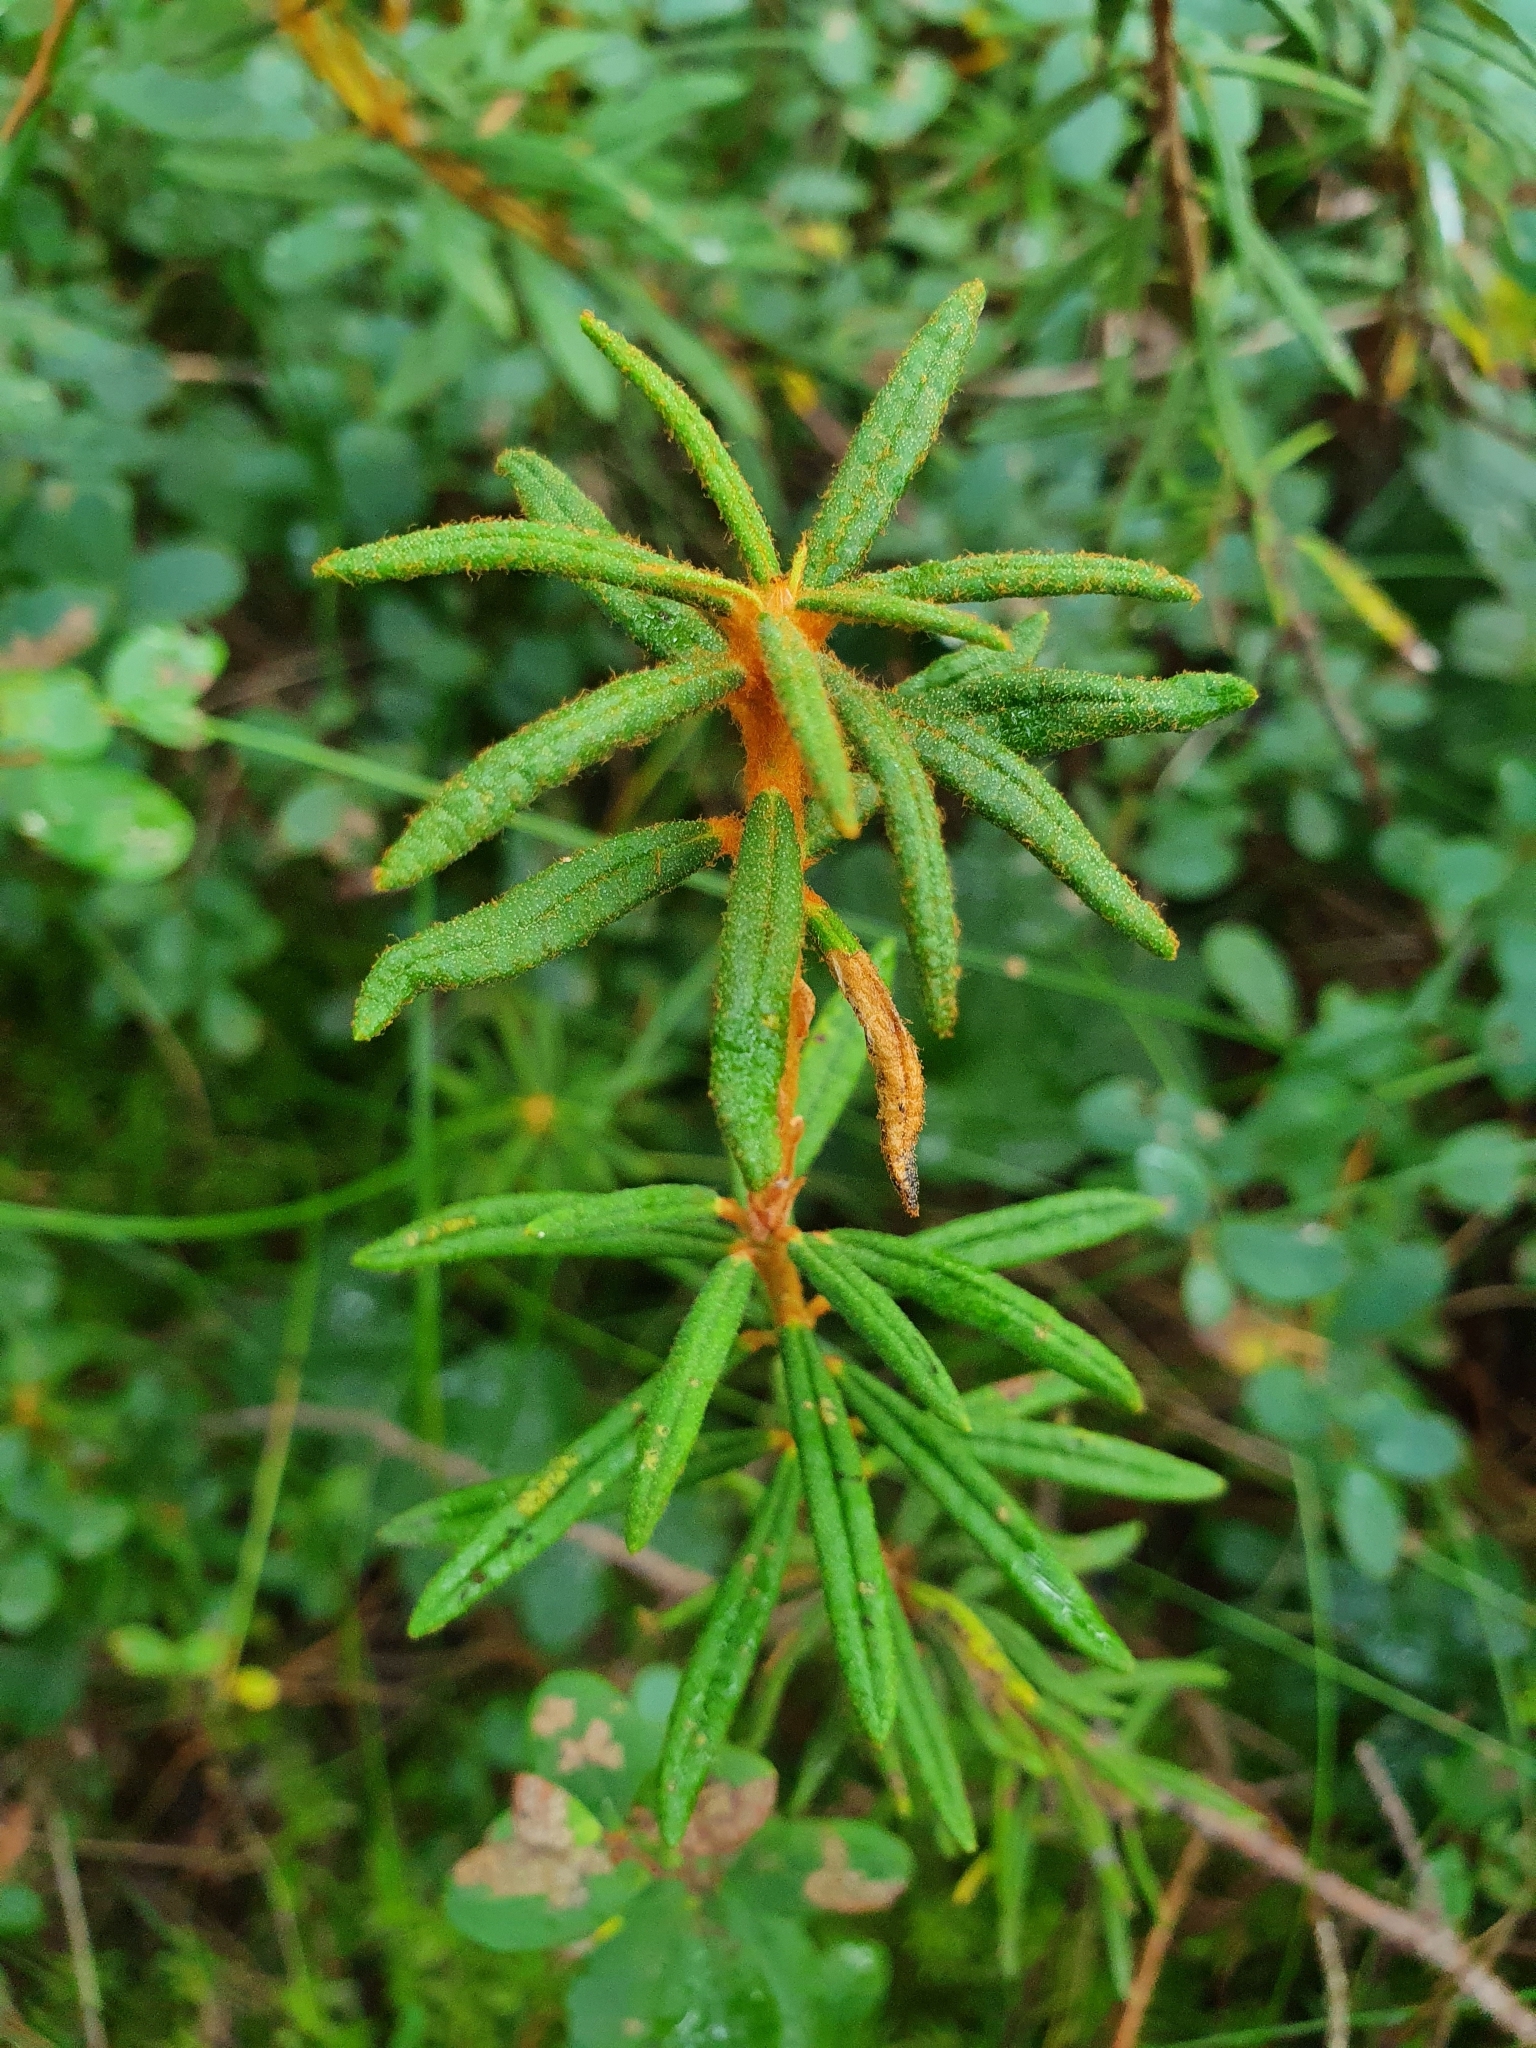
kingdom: Plantae
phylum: Tracheophyta
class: Magnoliopsida
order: Ericales
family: Ericaceae
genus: Rhododendron
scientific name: Rhododendron tomentosum
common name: Marsh labrador tea
